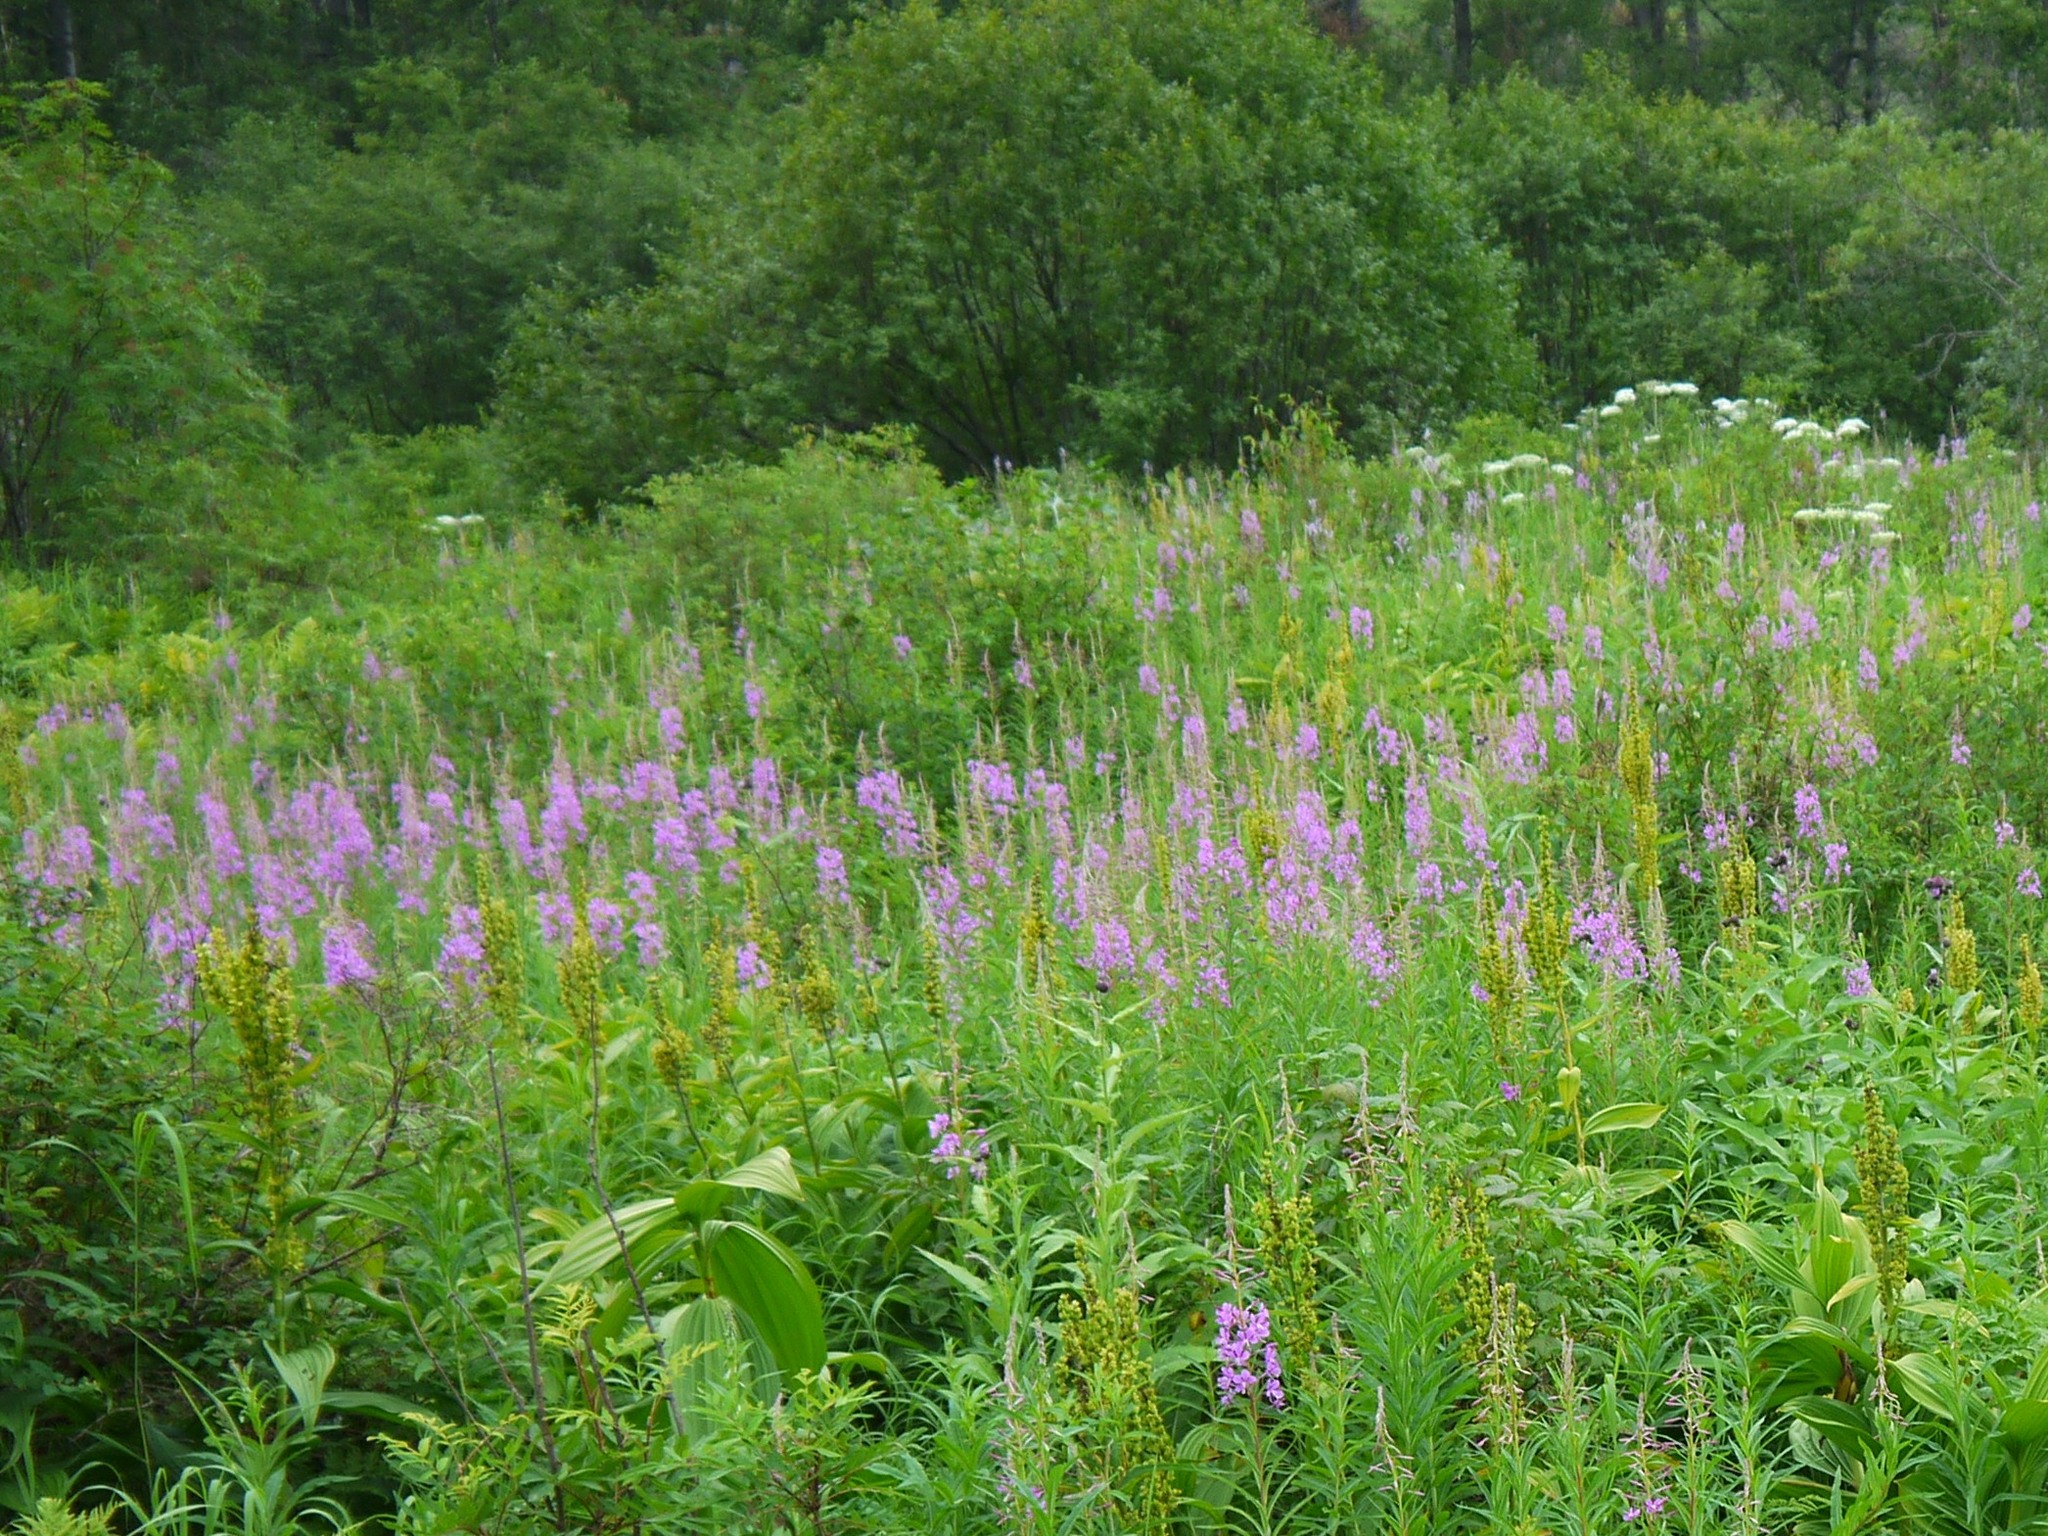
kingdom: Plantae
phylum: Tracheophyta
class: Magnoliopsida
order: Myrtales
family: Onagraceae
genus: Chamaenerion
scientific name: Chamaenerion angustifolium
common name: Fireweed
